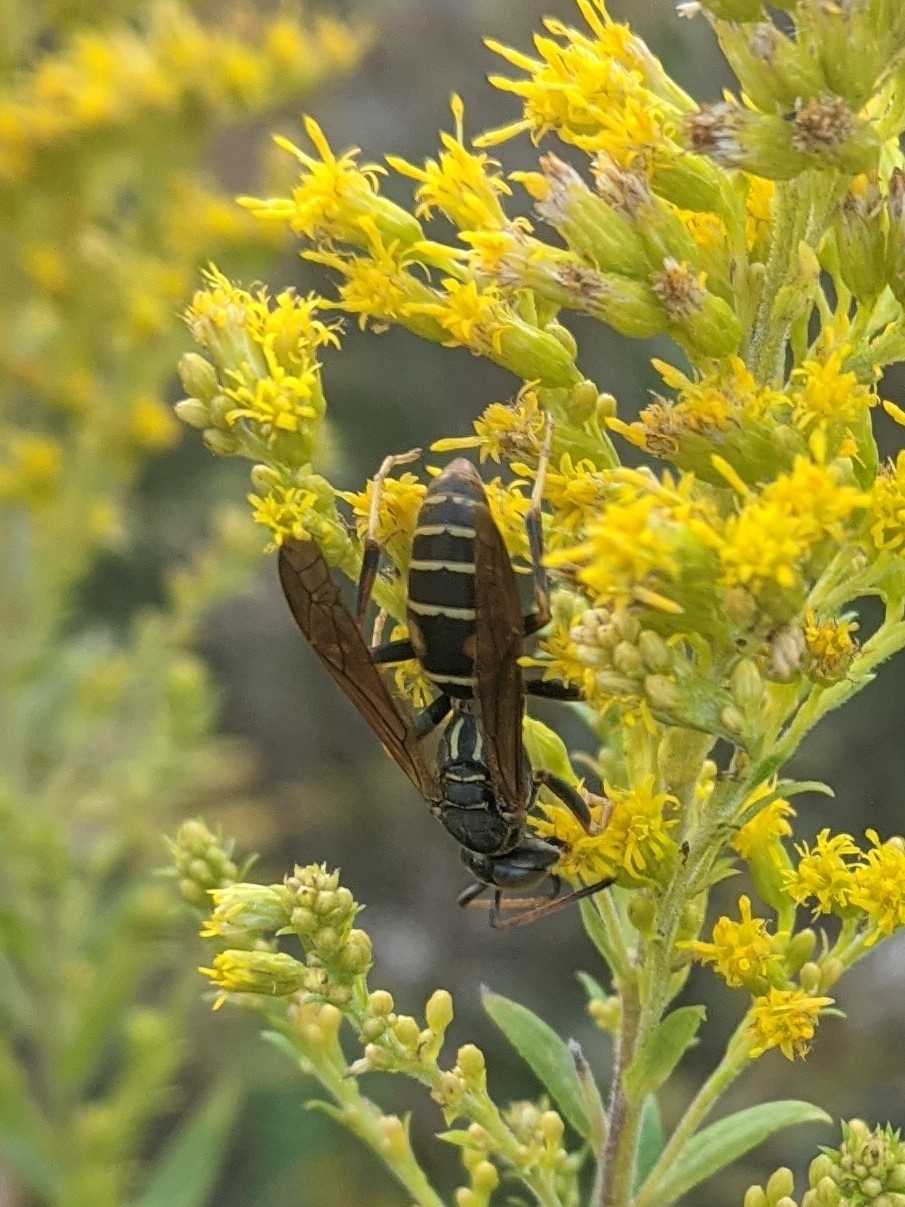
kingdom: Animalia
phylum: Arthropoda
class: Insecta
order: Hymenoptera
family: Eumenidae
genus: Polistes
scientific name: Polistes fuscatus
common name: Dark paper wasp
